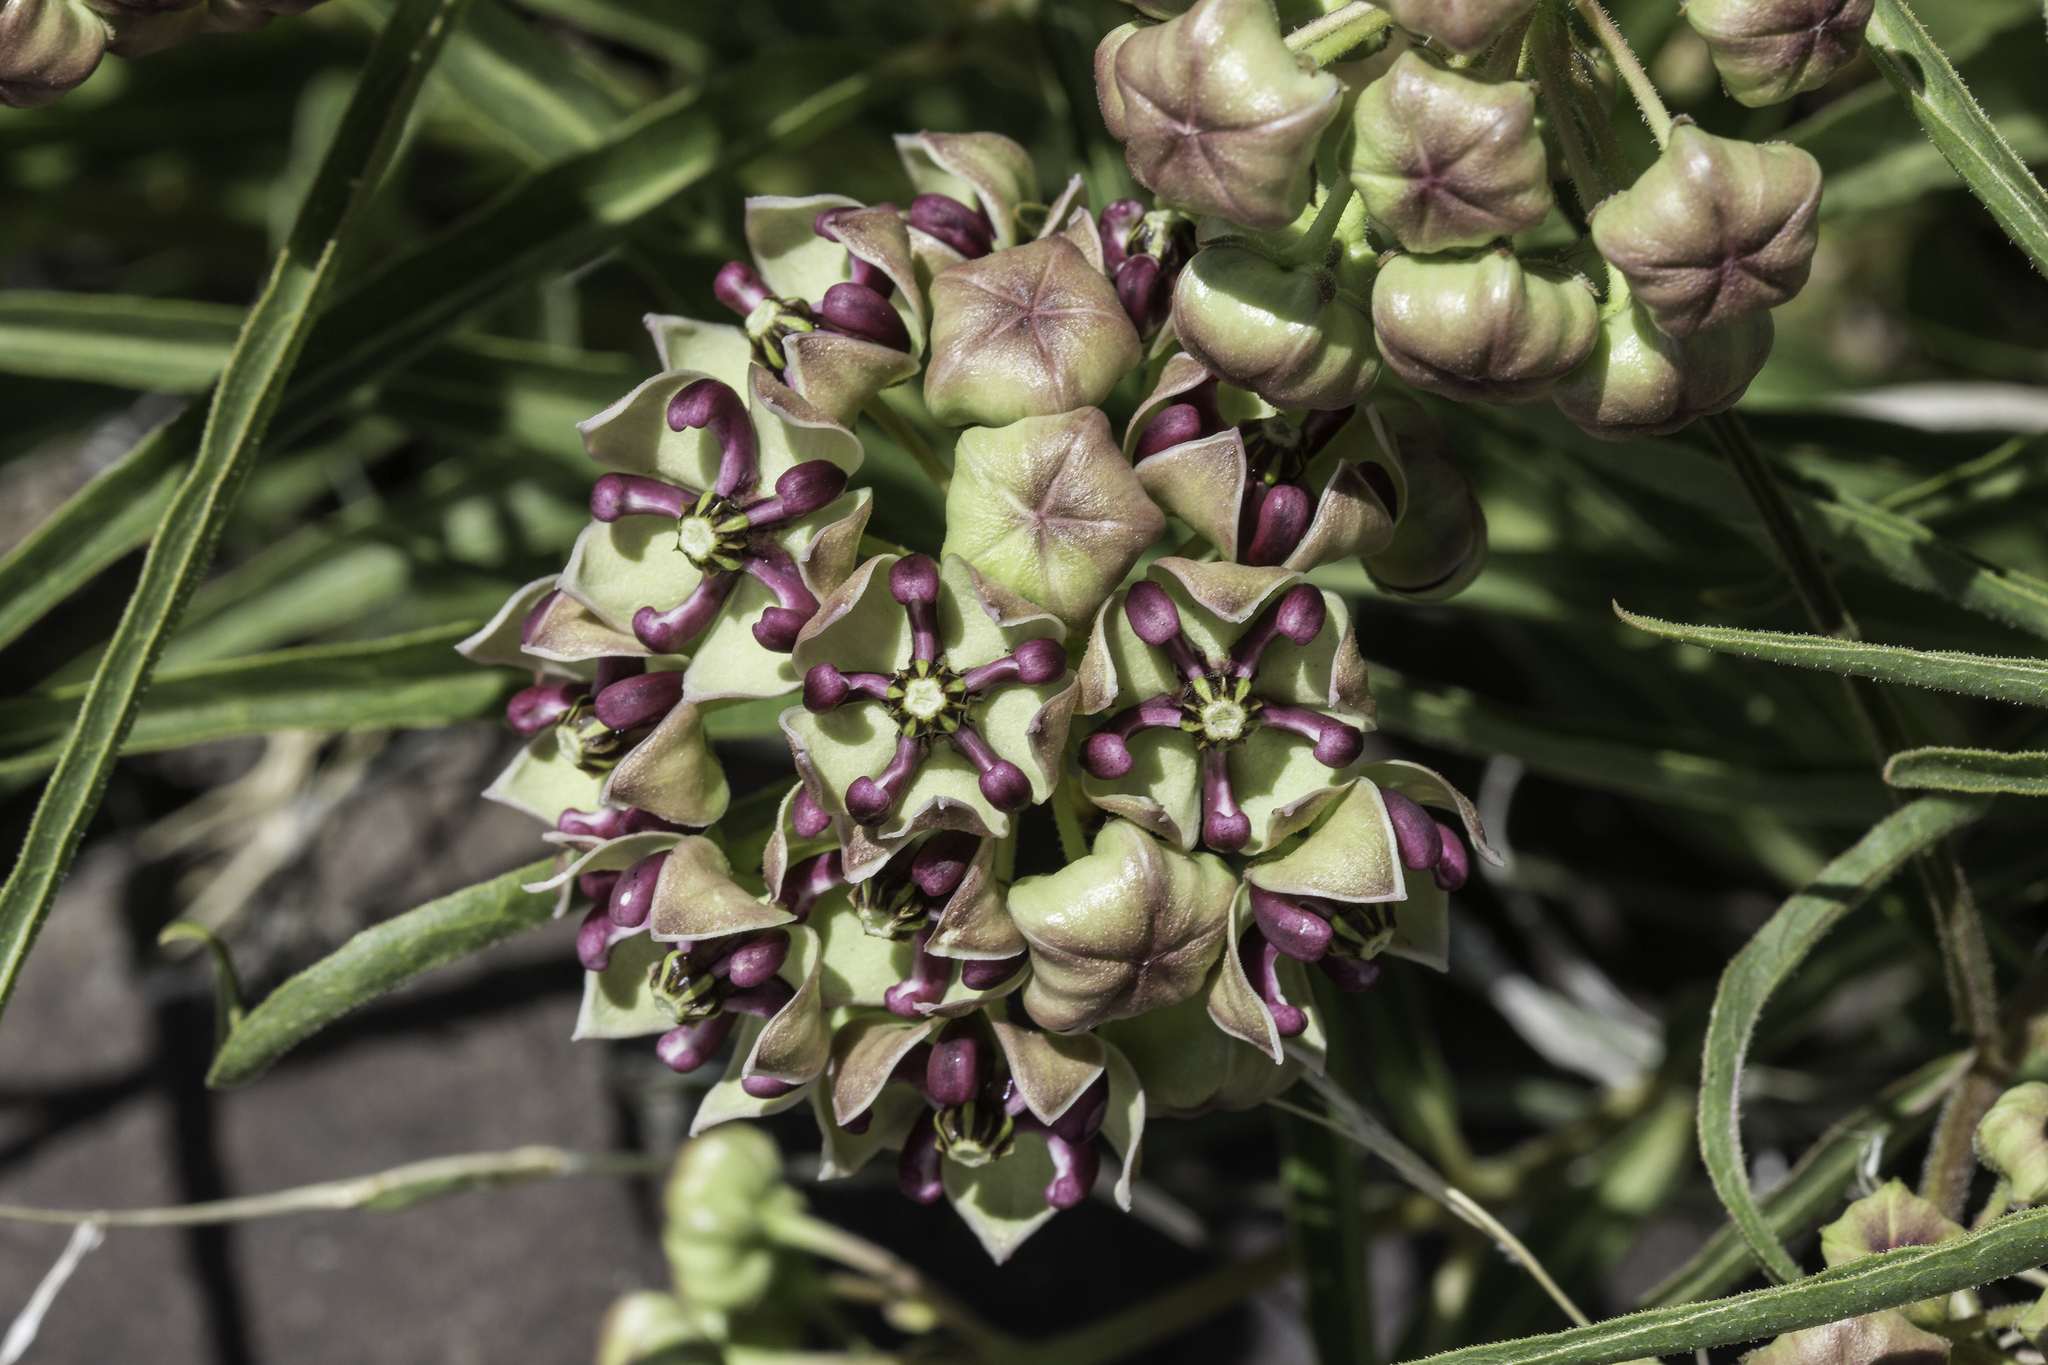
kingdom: Plantae
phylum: Tracheophyta
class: Magnoliopsida
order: Gentianales
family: Apocynaceae
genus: Asclepias
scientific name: Asclepias asperula
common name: Antelope horns
